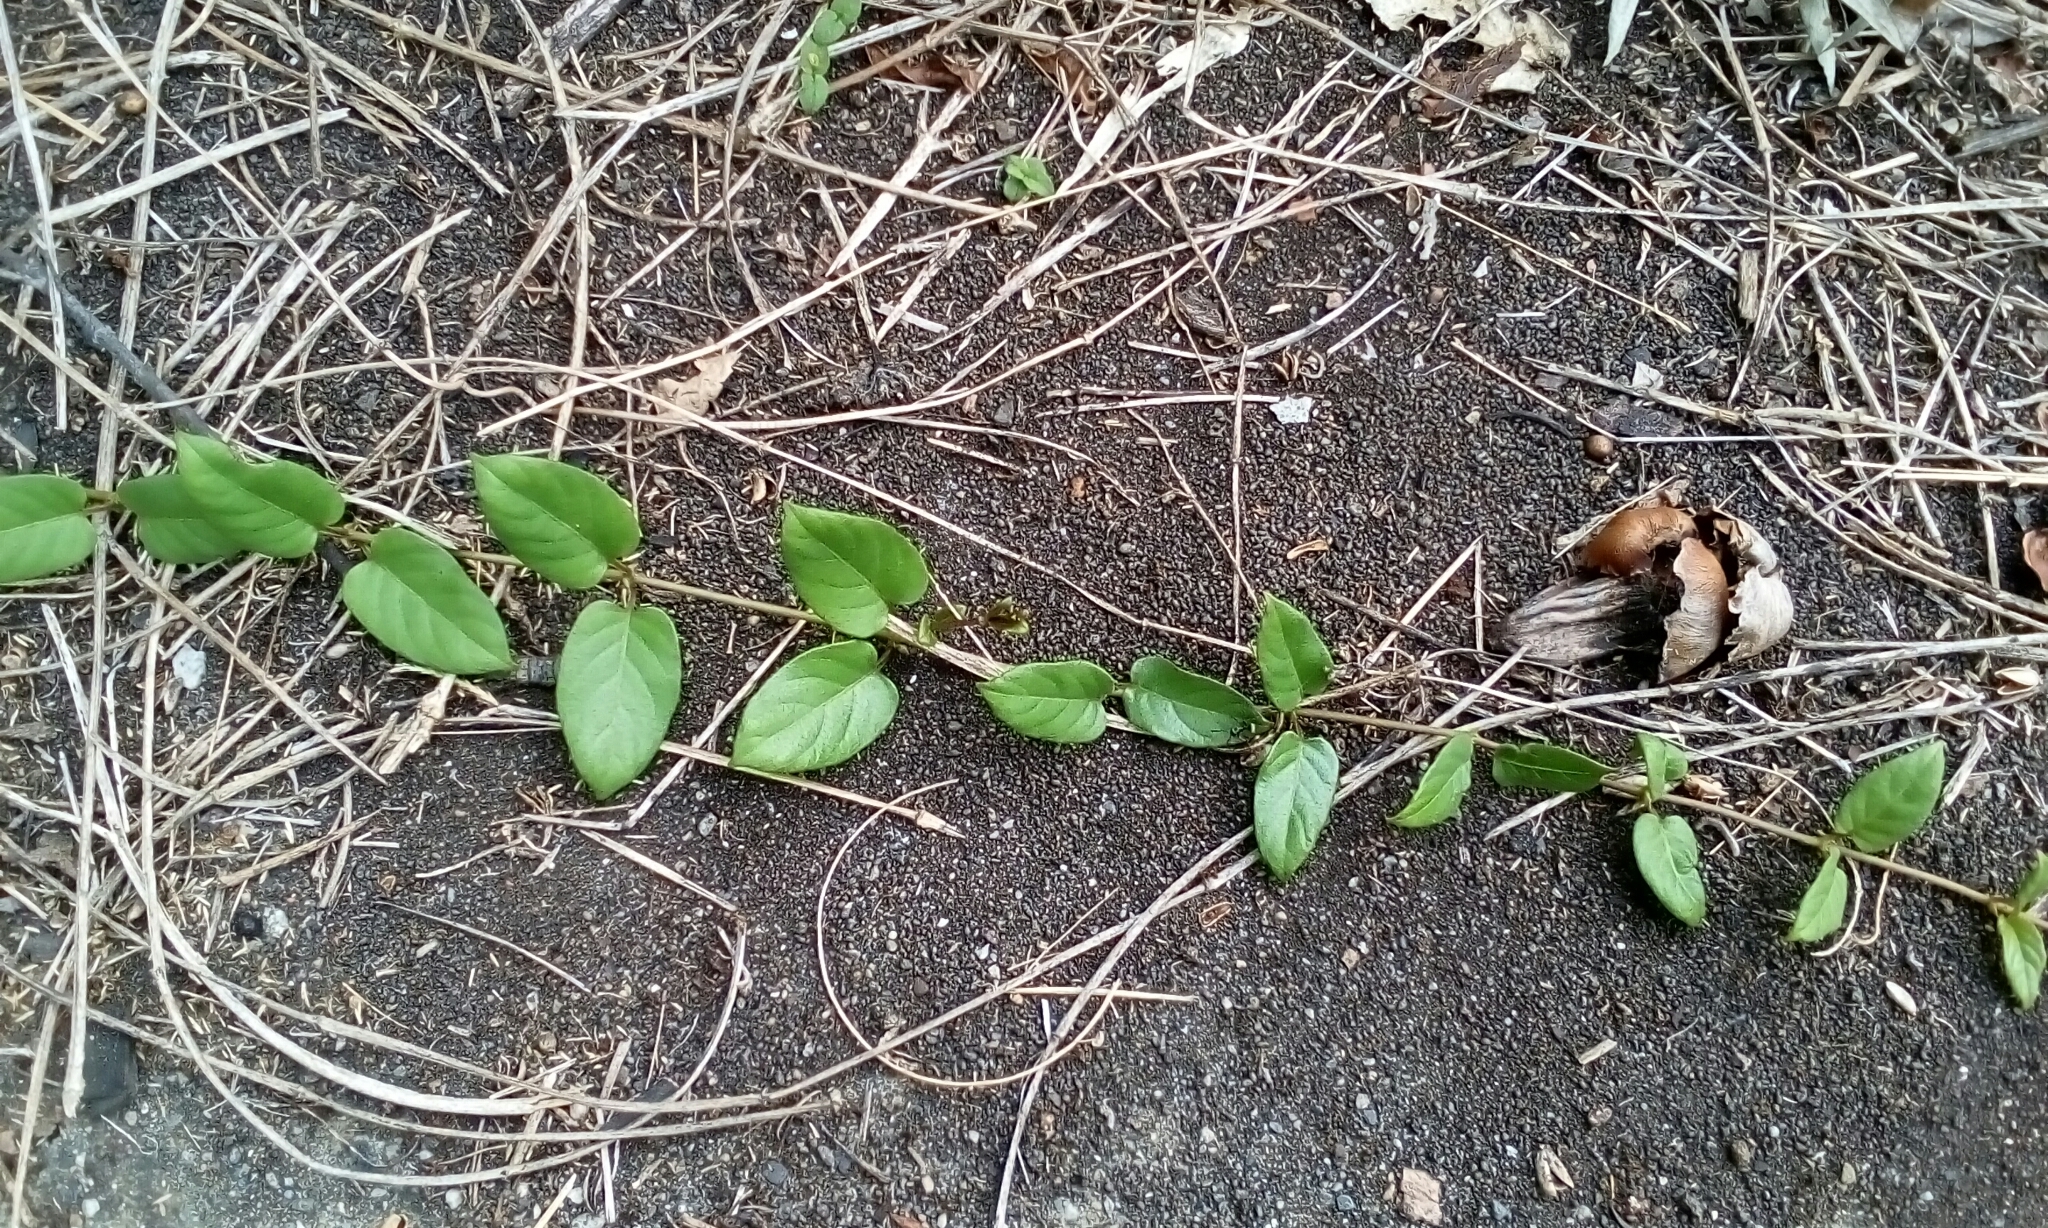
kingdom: Plantae
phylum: Tracheophyta
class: Magnoliopsida
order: Gentianales
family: Rubiaceae
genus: Paederia
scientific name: Paederia foetida
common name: Stinkvine
